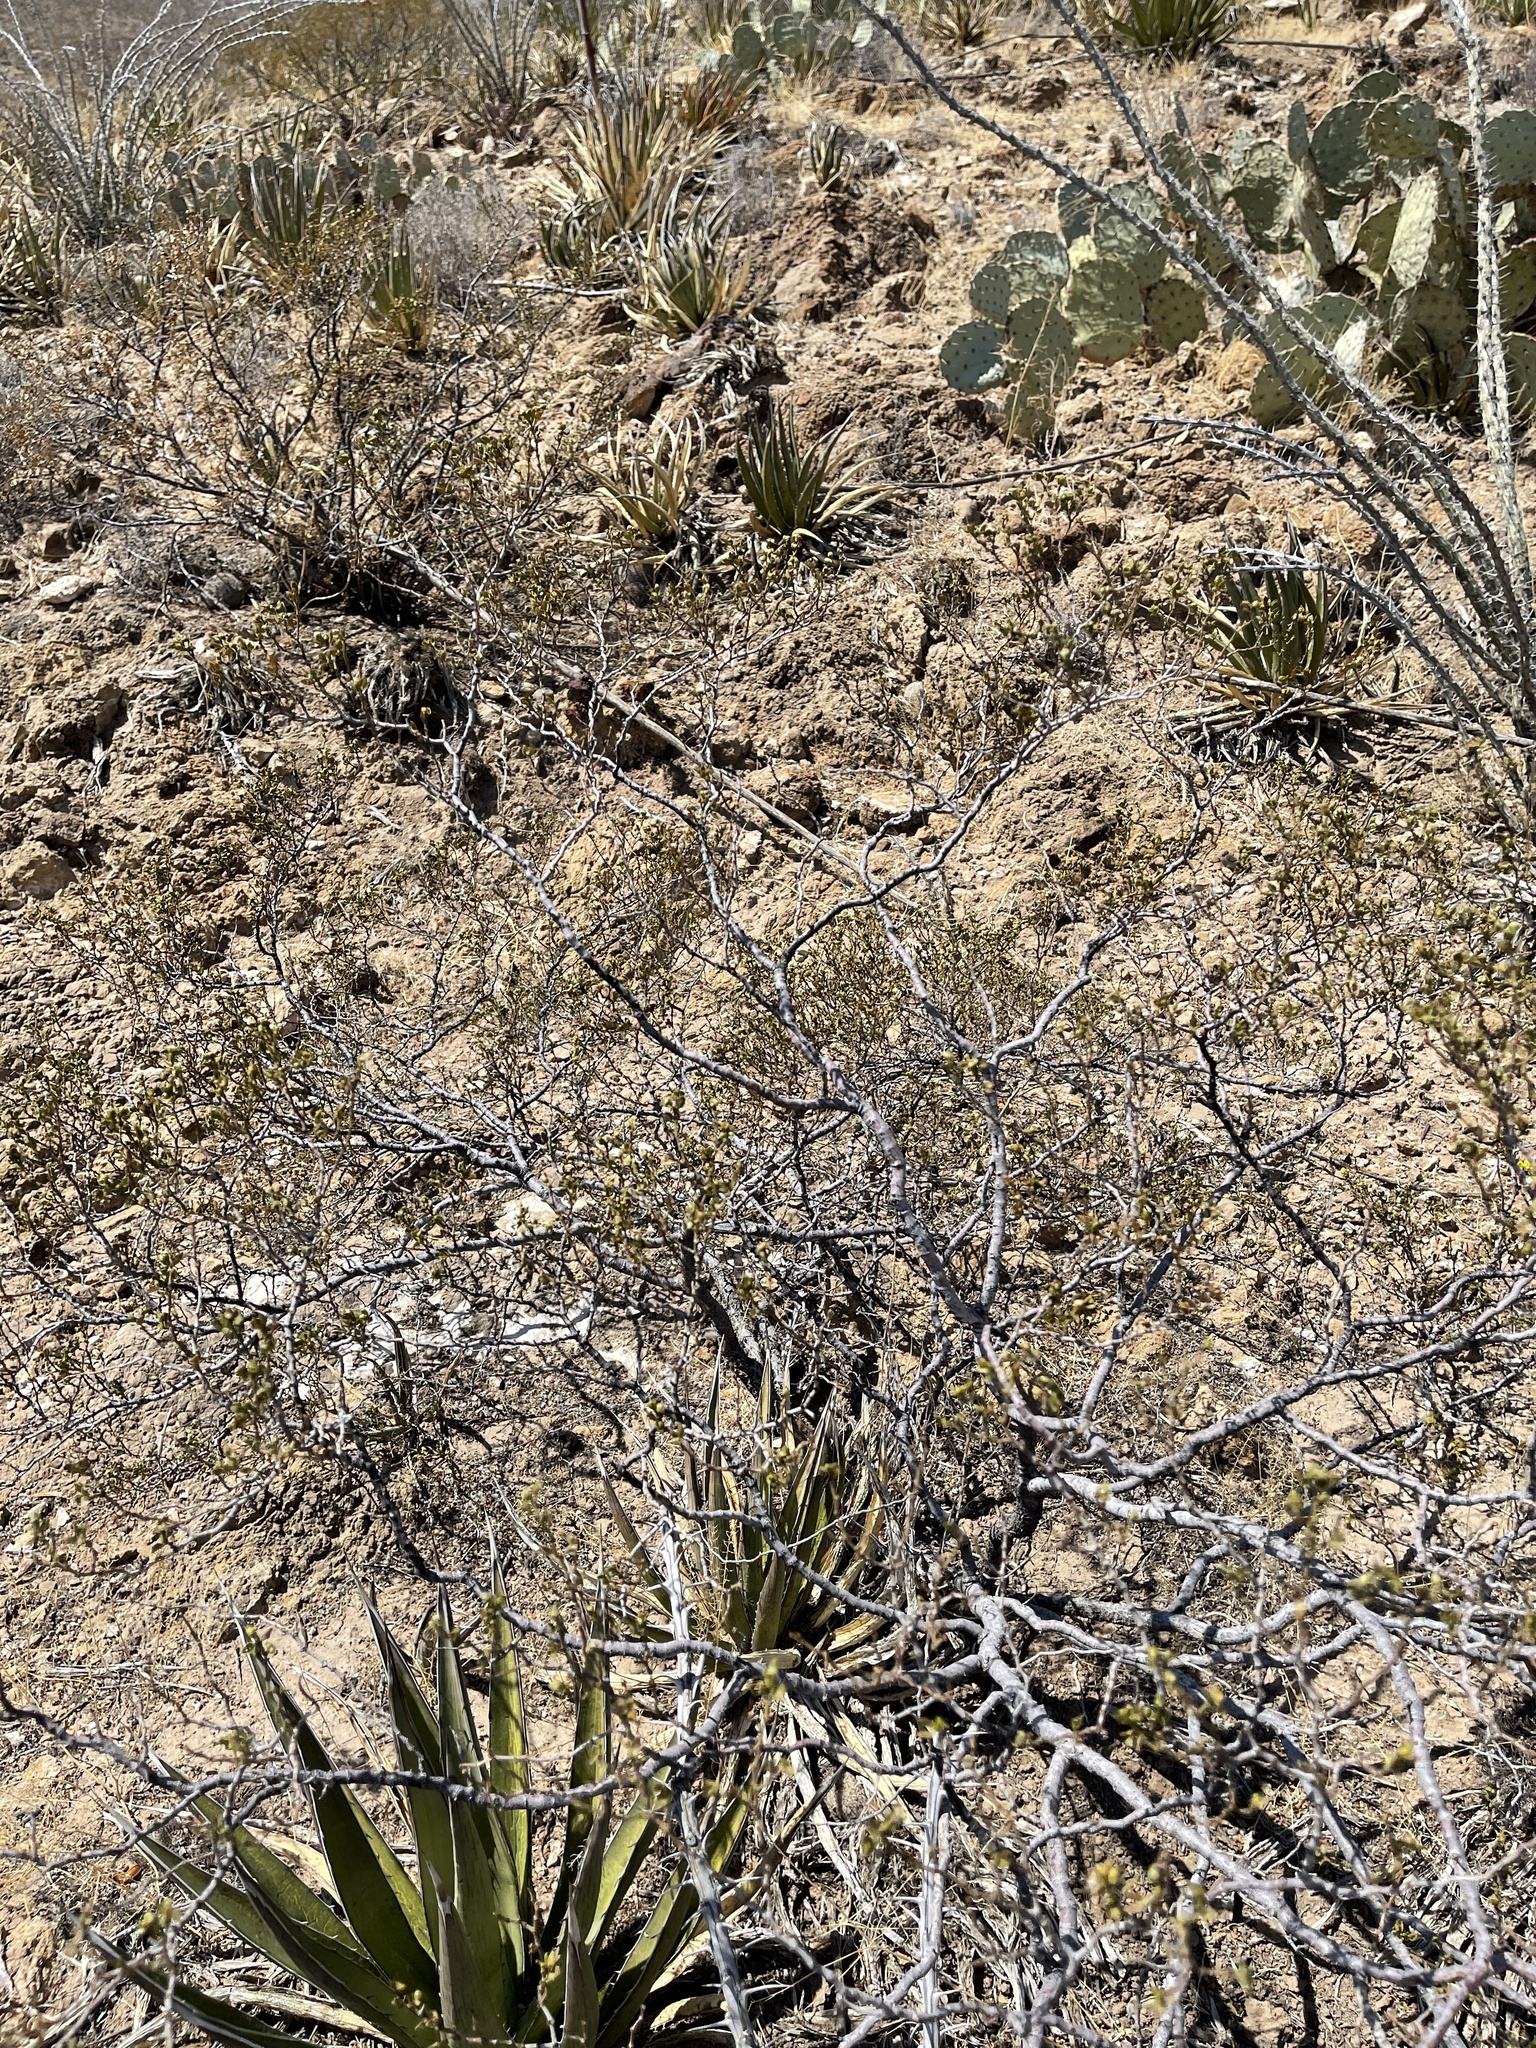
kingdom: Plantae
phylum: Tracheophyta
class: Magnoliopsida
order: Zygophyllales
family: Zygophyllaceae
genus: Larrea
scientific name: Larrea tridentata
